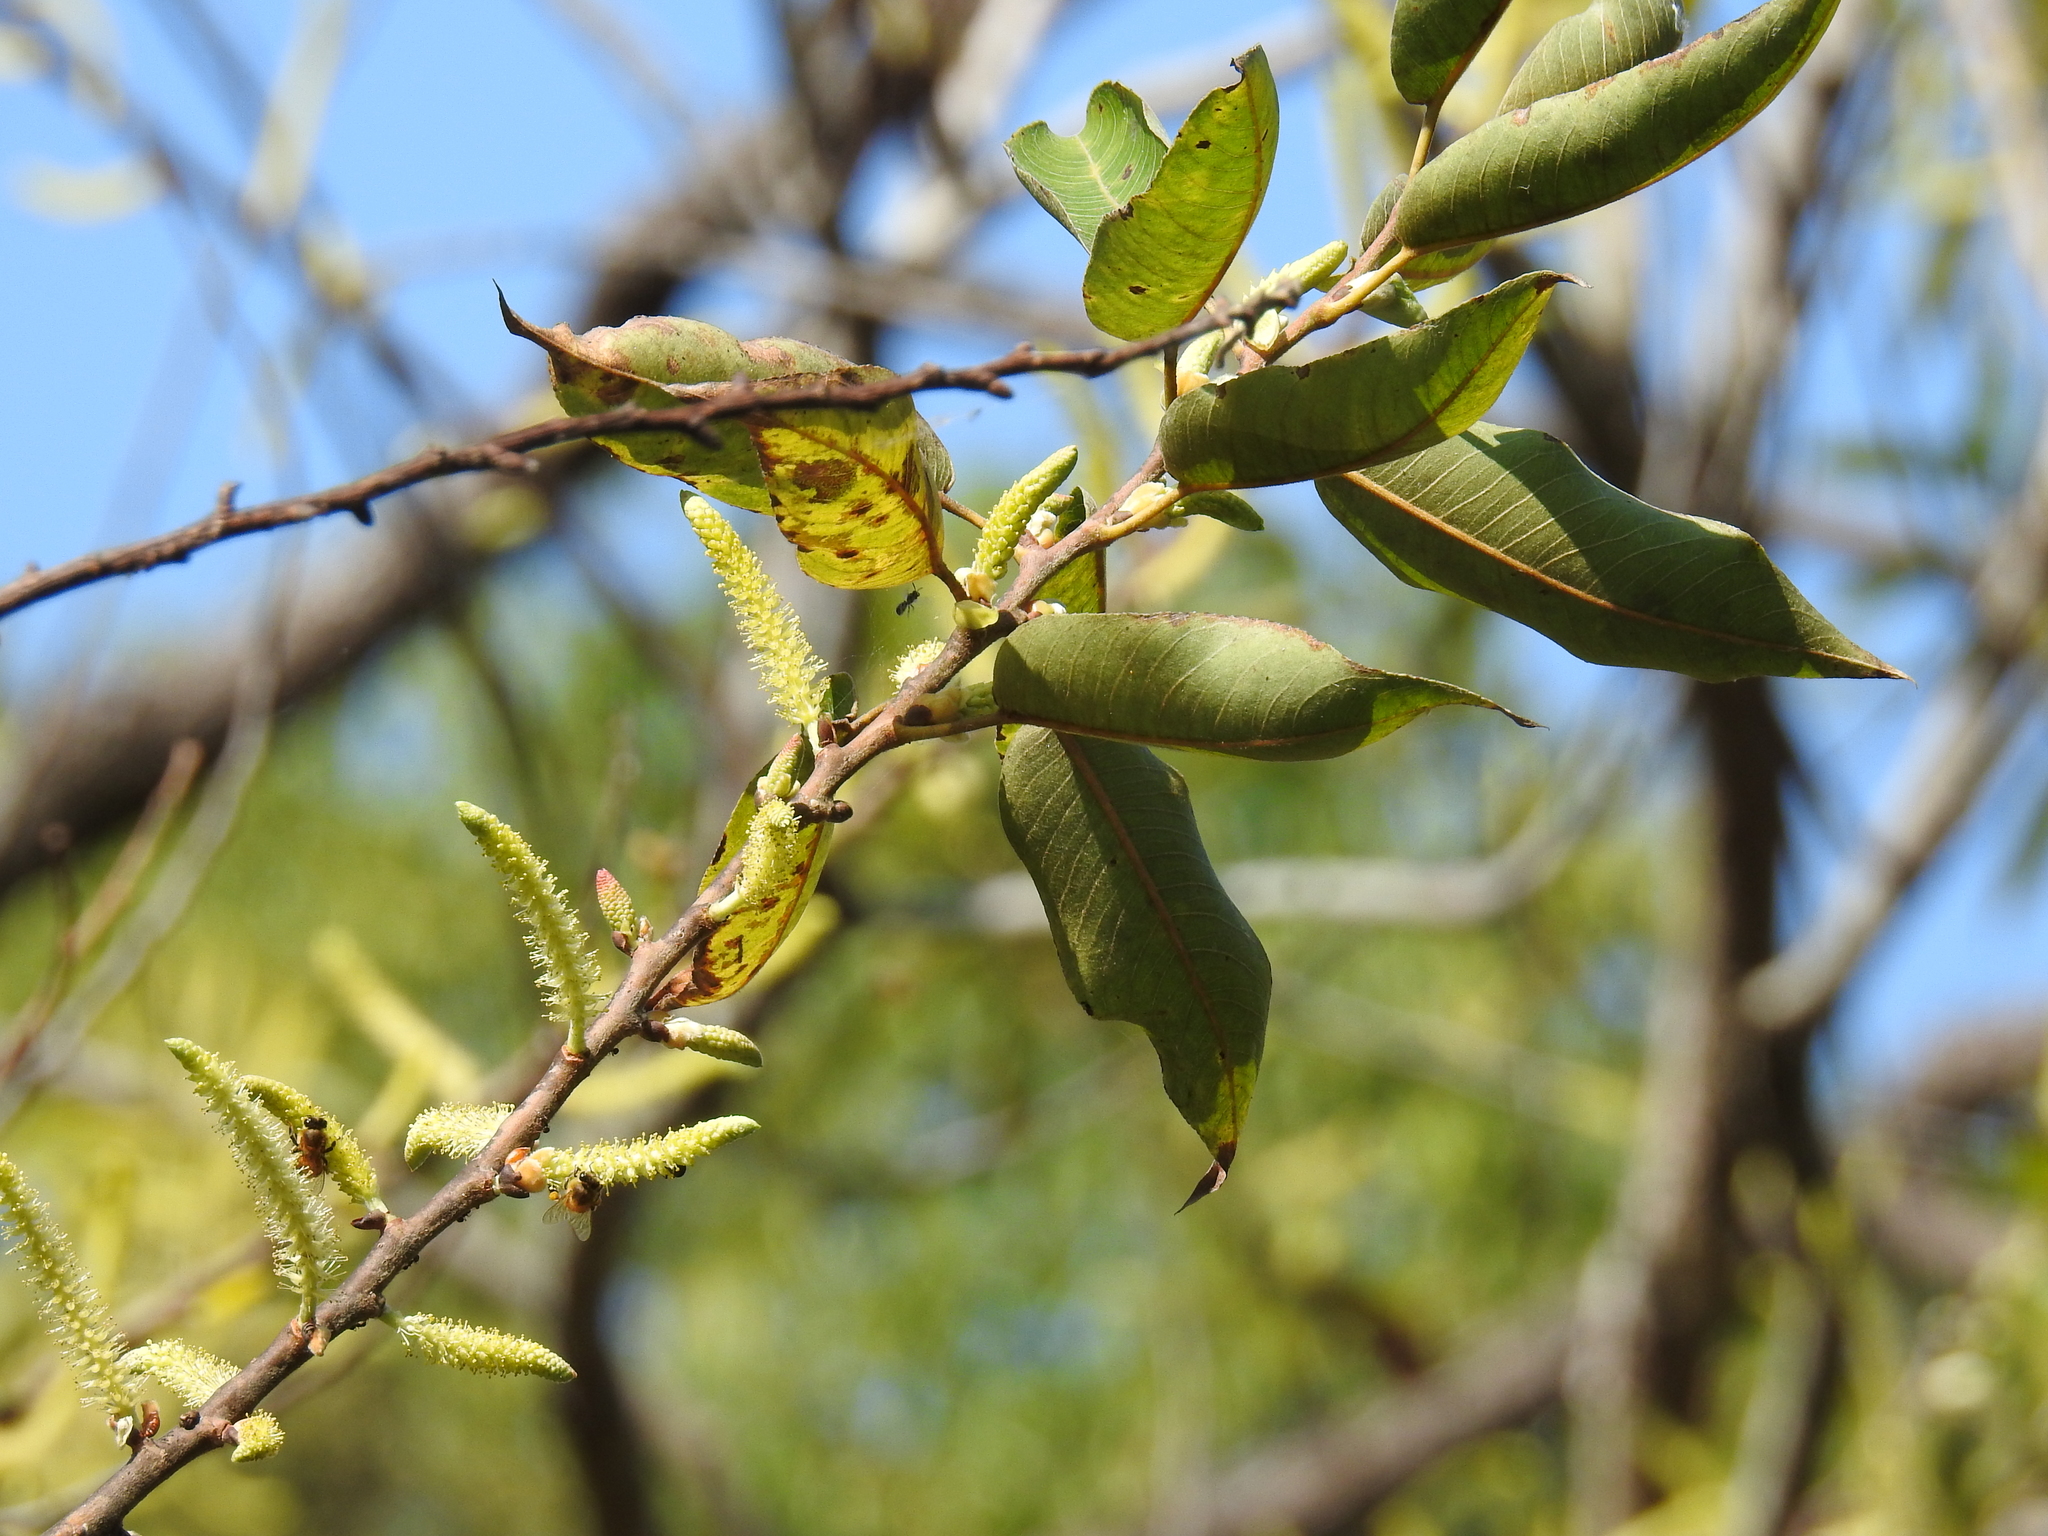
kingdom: Plantae
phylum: Tracheophyta
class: Magnoliopsida
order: Malpighiales
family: Salicaceae
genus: Salix
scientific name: Salix kusanoi
